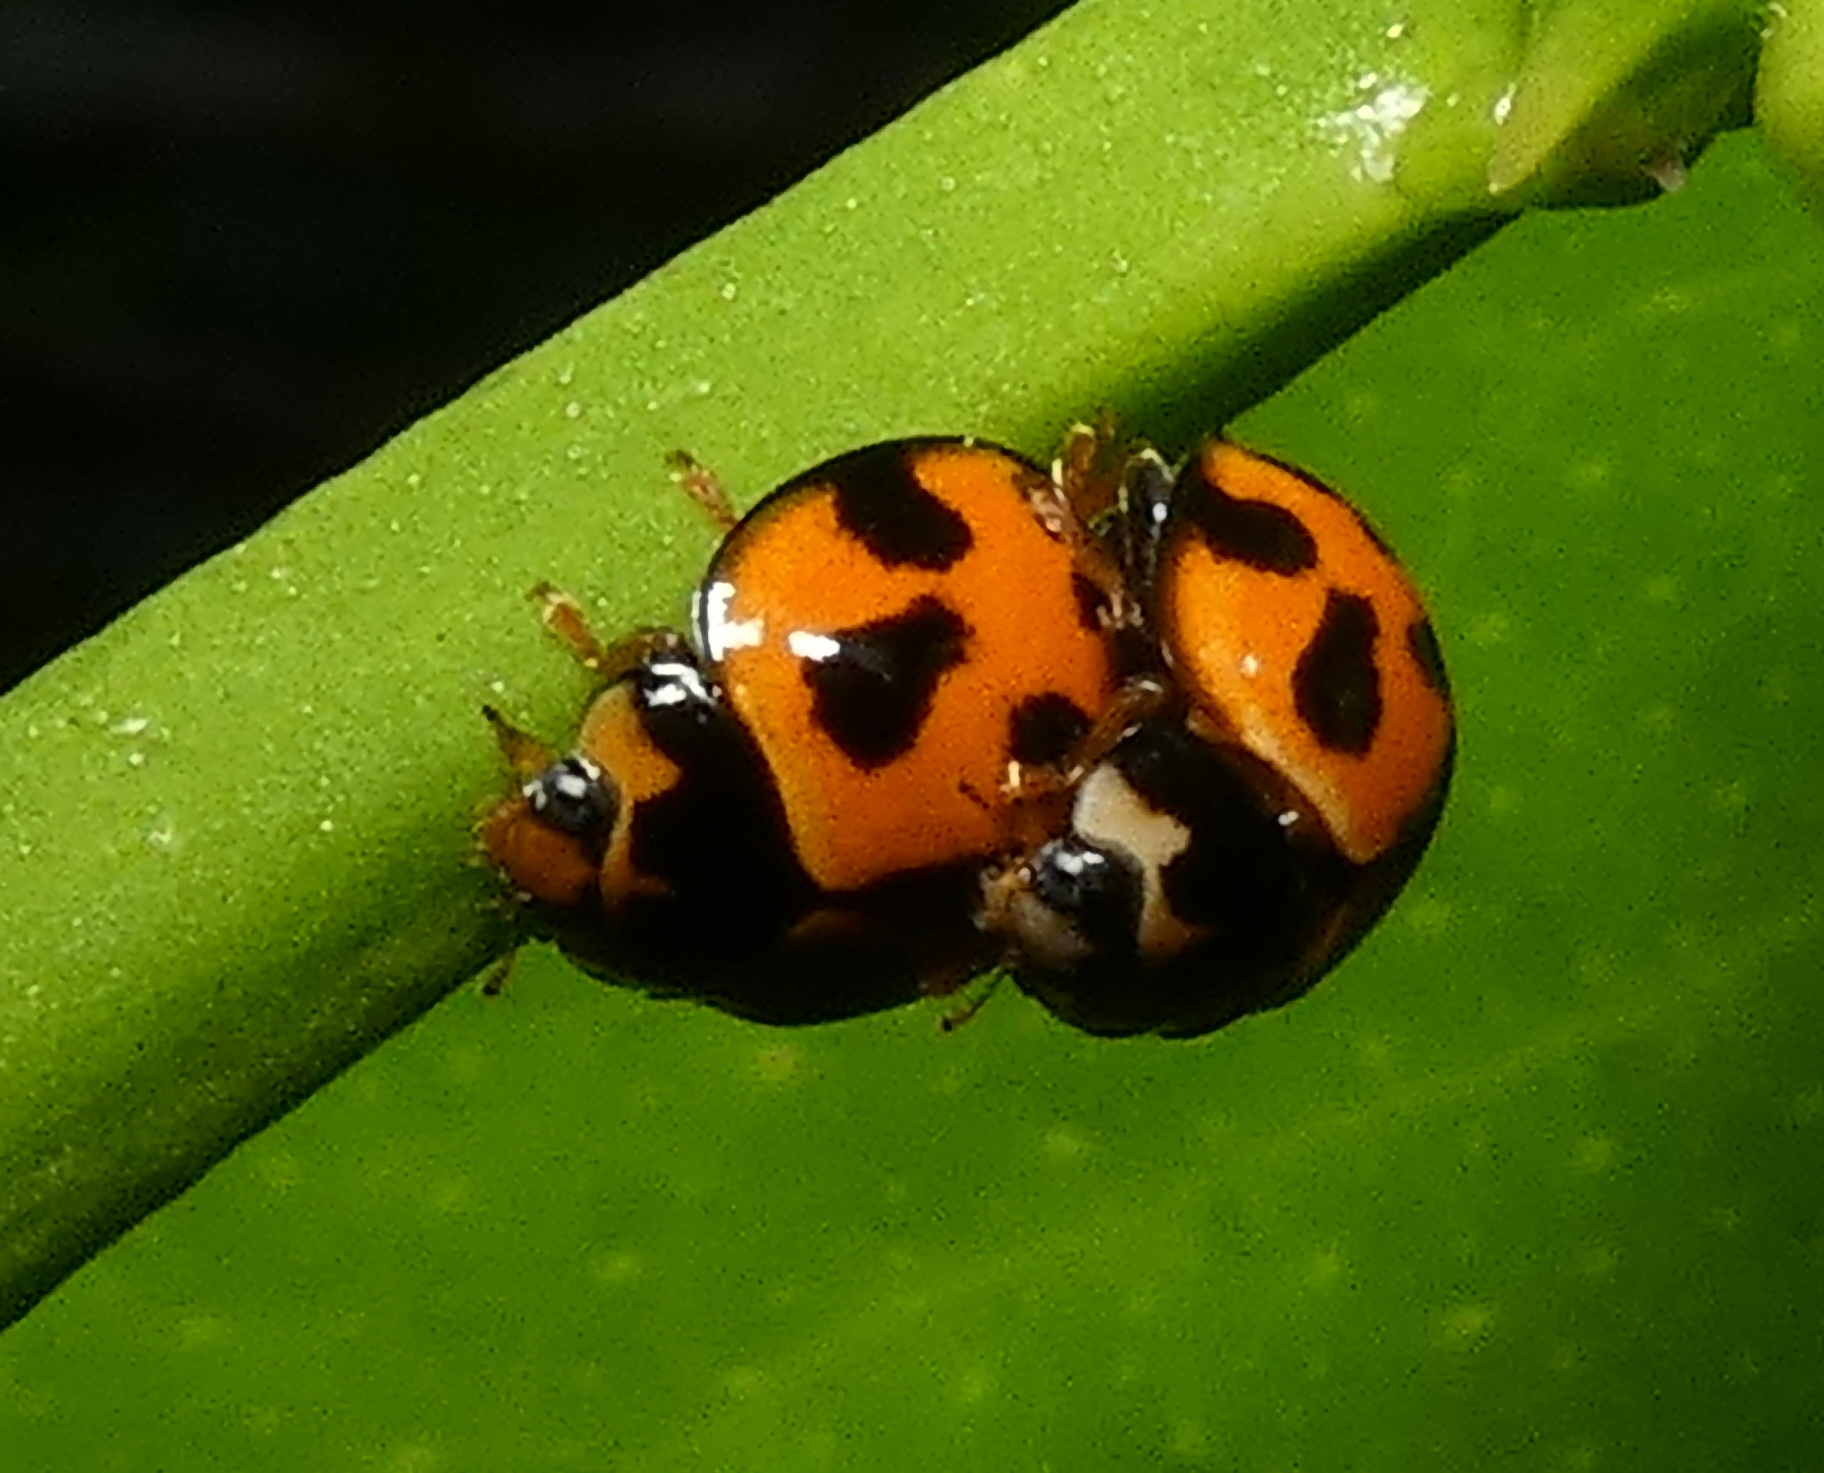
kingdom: Animalia
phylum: Arthropoda
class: Insecta
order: Coleoptera
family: Coccinellidae
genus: Coelophora
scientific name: Coelophora inaequalis
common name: Common australian lady beetle
